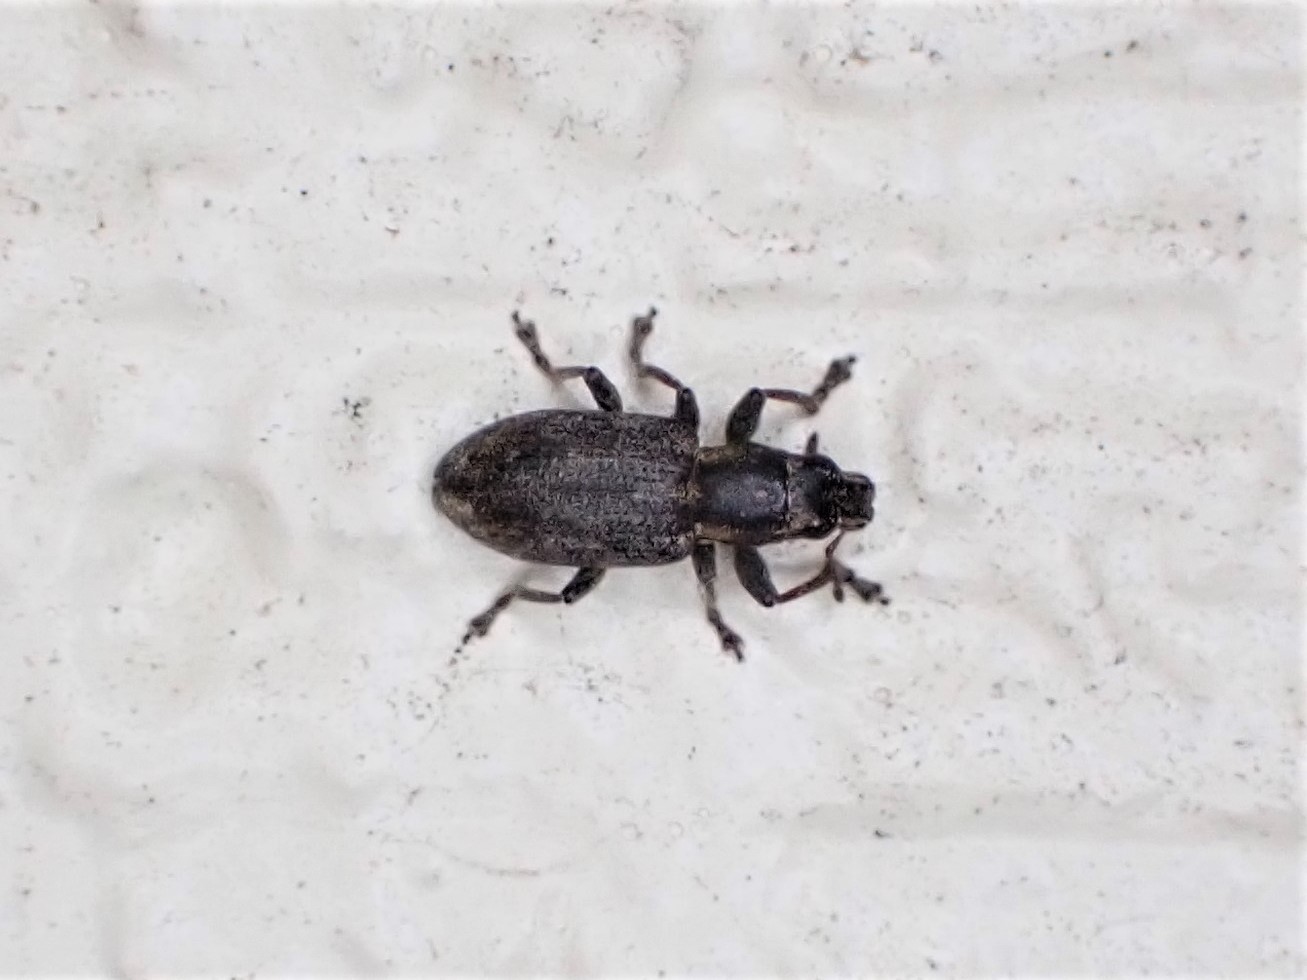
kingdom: Animalia
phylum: Arthropoda
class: Insecta
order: Coleoptera
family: Curculionidae
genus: Sitona
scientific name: Sitona obsoletus
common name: Weevil
